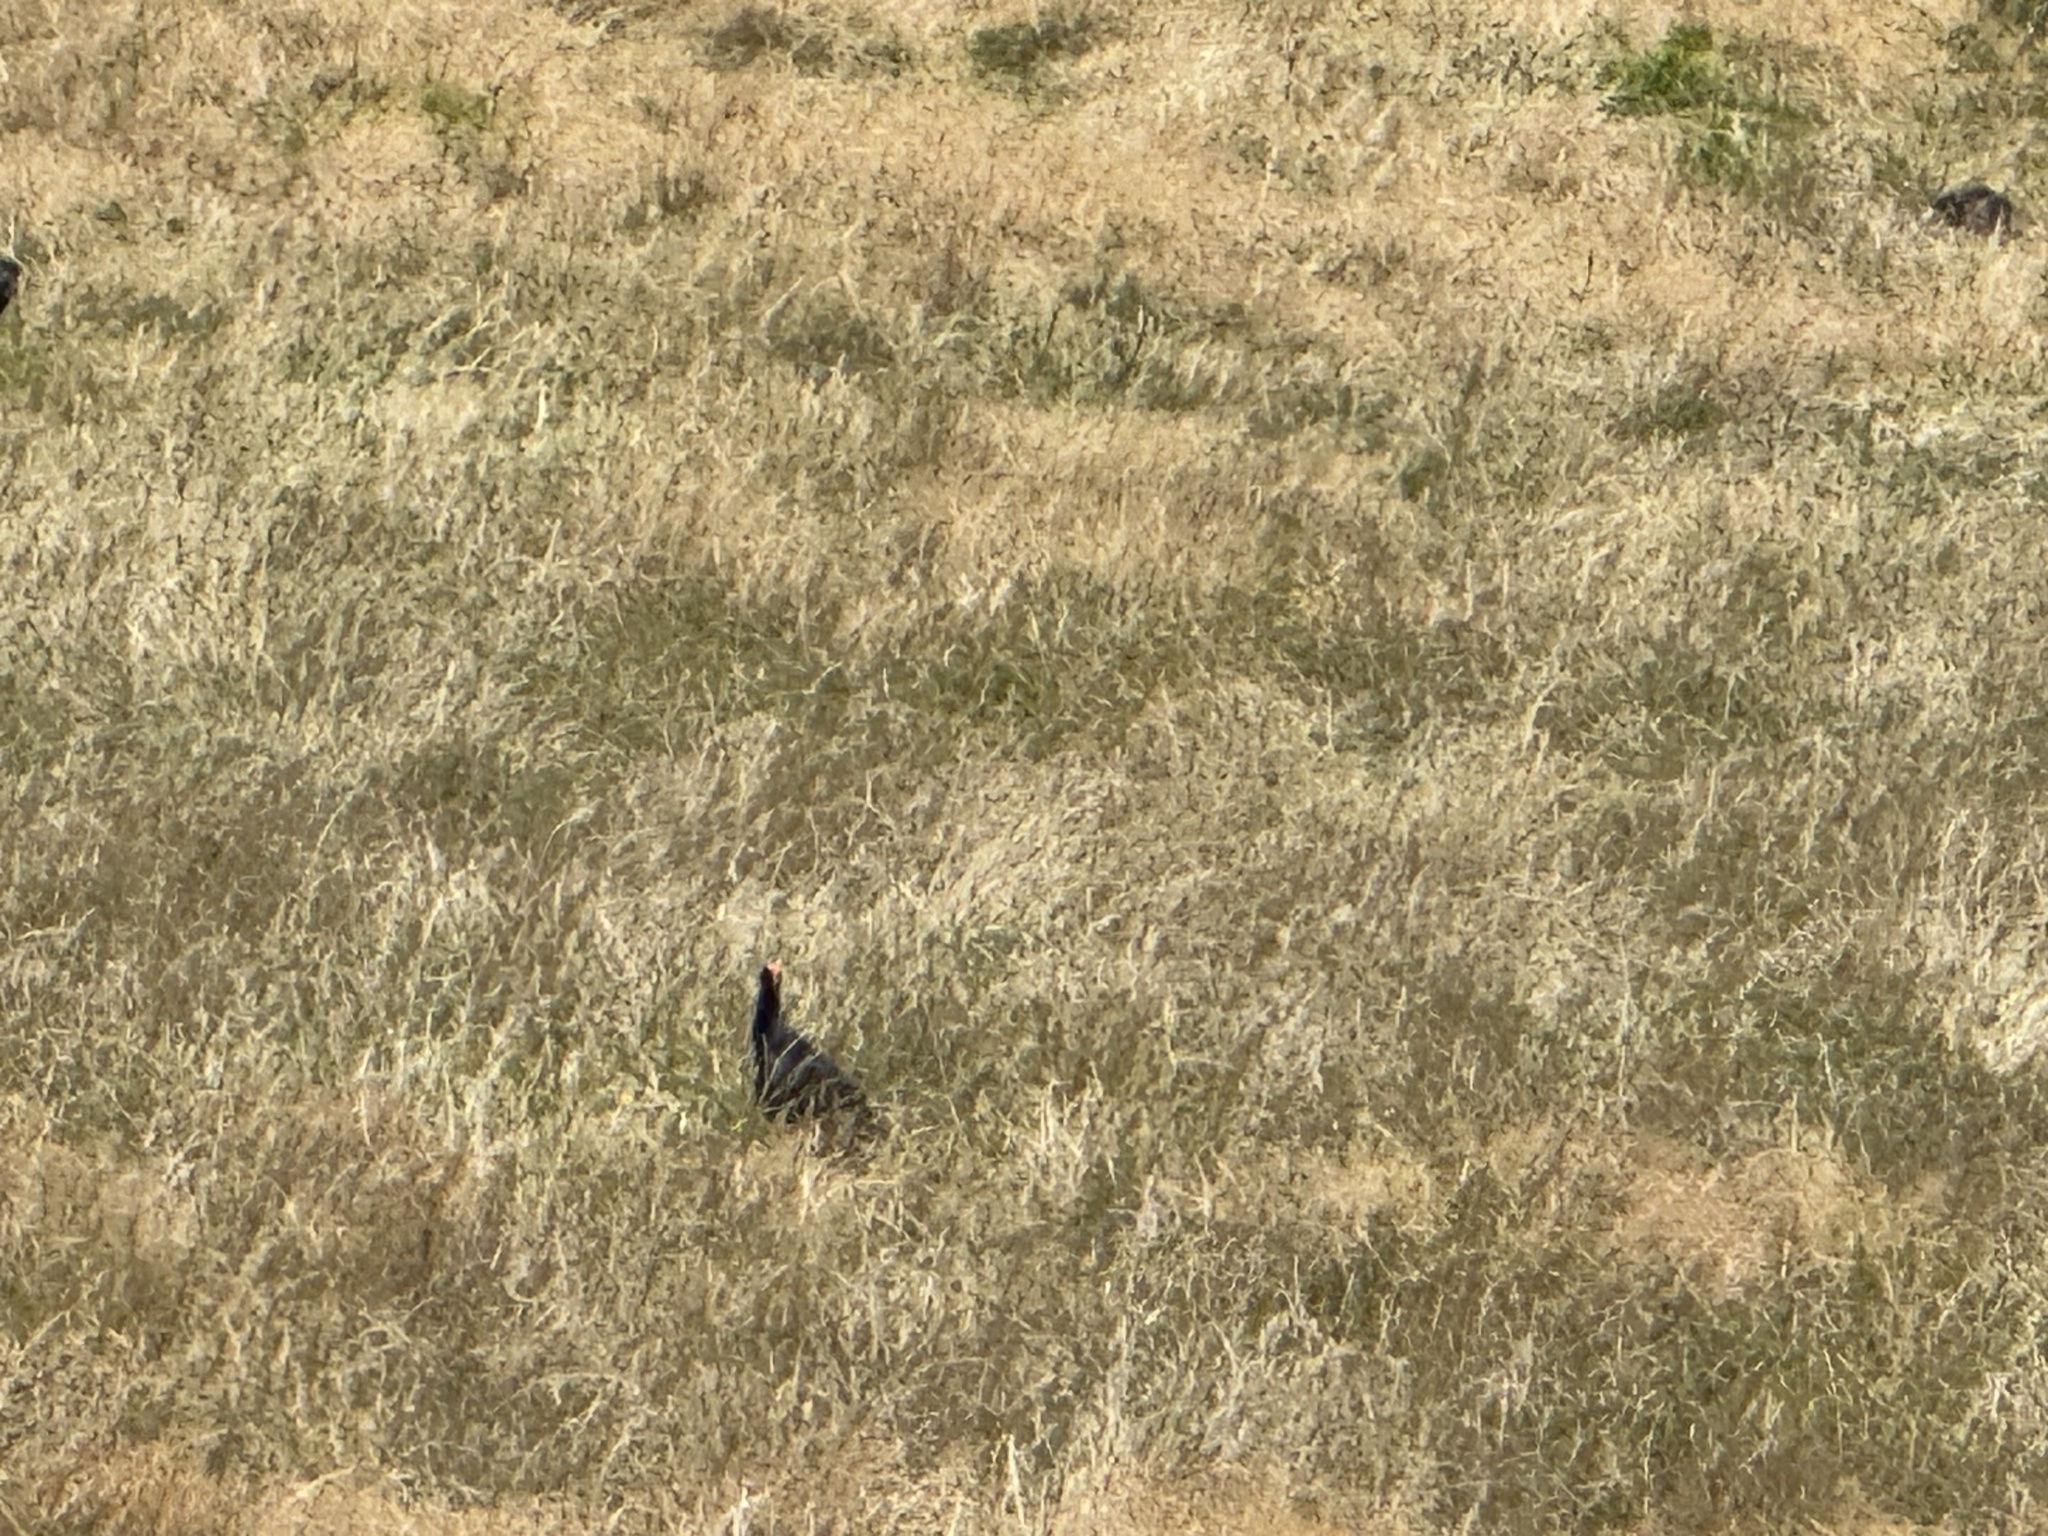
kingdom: Animalia
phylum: Chordata
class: Aves
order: Gruiformes
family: Rallidae
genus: Porphyrio
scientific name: Porphyrio melanotus
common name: Australasian swamphen
